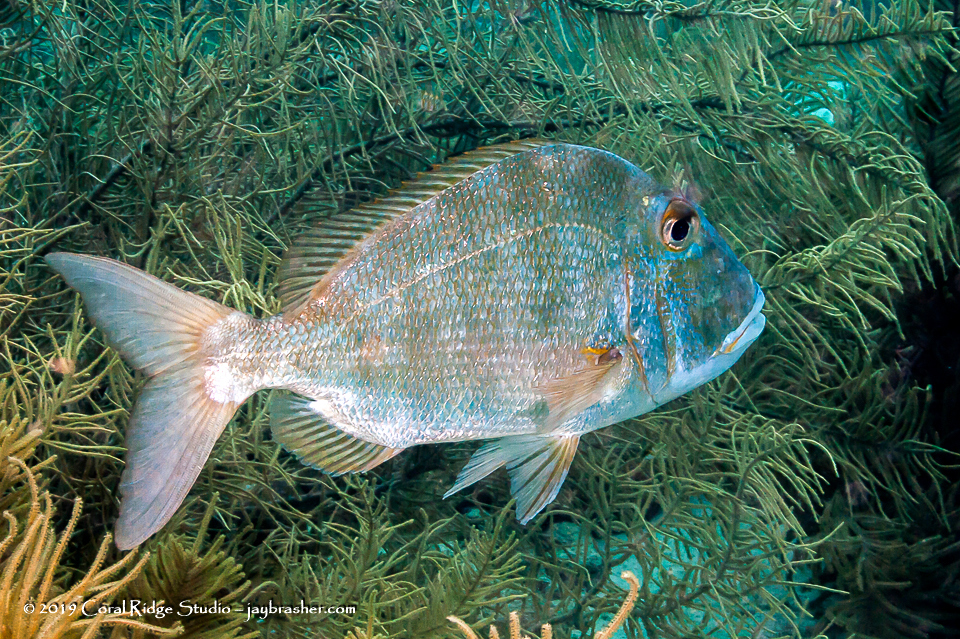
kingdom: Animalia
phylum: Chordata
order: Perciformes
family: Sparidae
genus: Calamus
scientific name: Calamus bajonado
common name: Jolthead porgy
